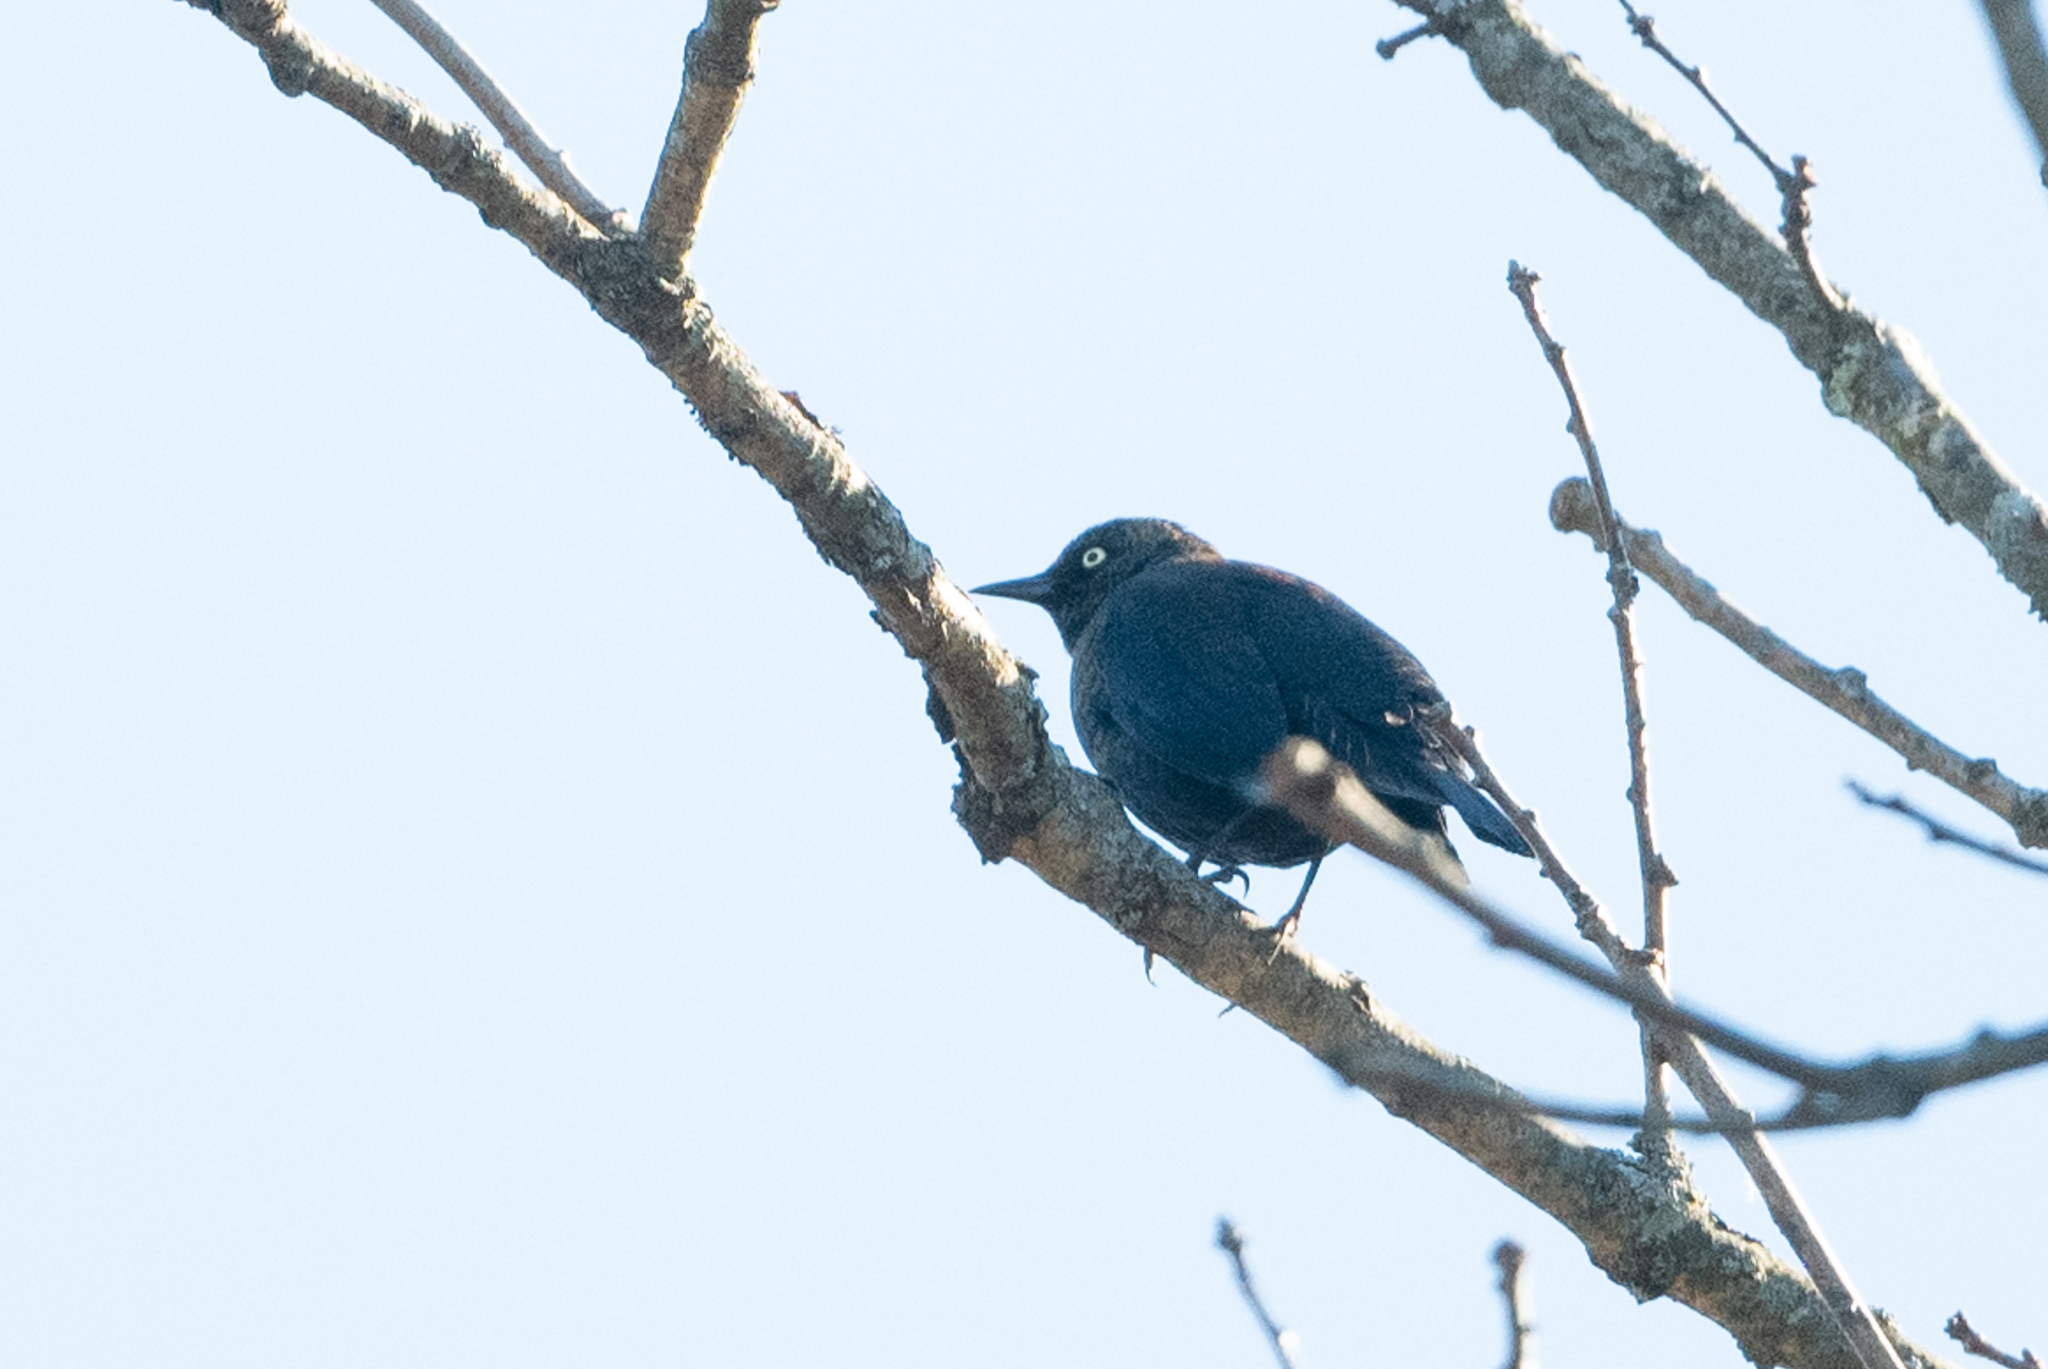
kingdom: Animalia
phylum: Chordata
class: Aves
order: Passeriformes
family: Icteridae
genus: Euphagus
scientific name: Euphagus carolinus
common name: Rusty blackbird
